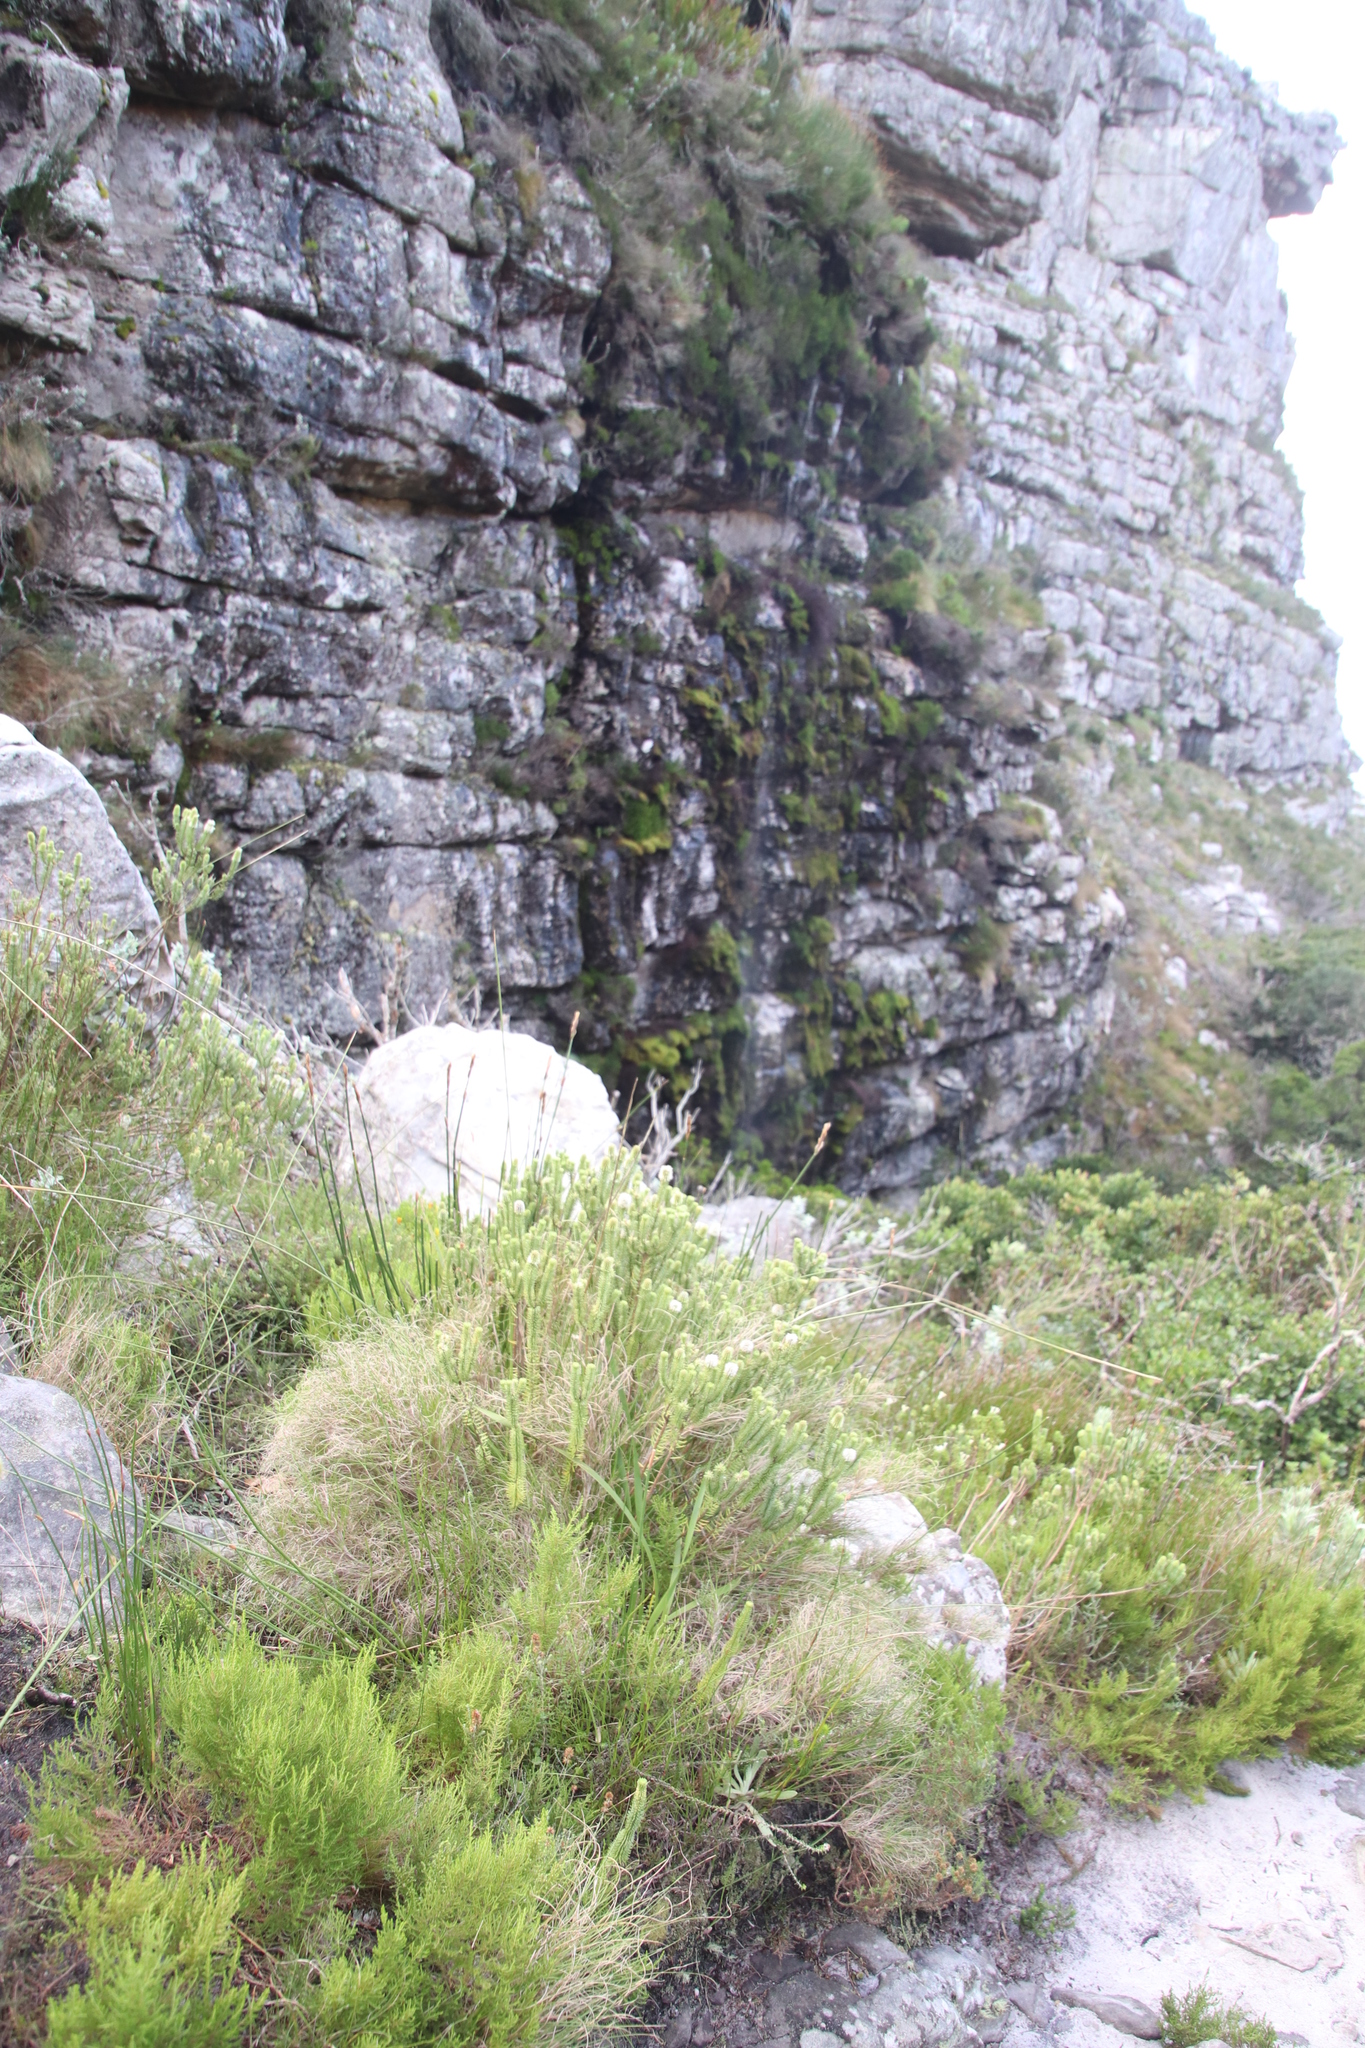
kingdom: Plantae
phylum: Tracheophyta
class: Polypodiopsida
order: Polypodiales
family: Blechnaceae
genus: Lomaridium
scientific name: Lomaridium attenuatum
